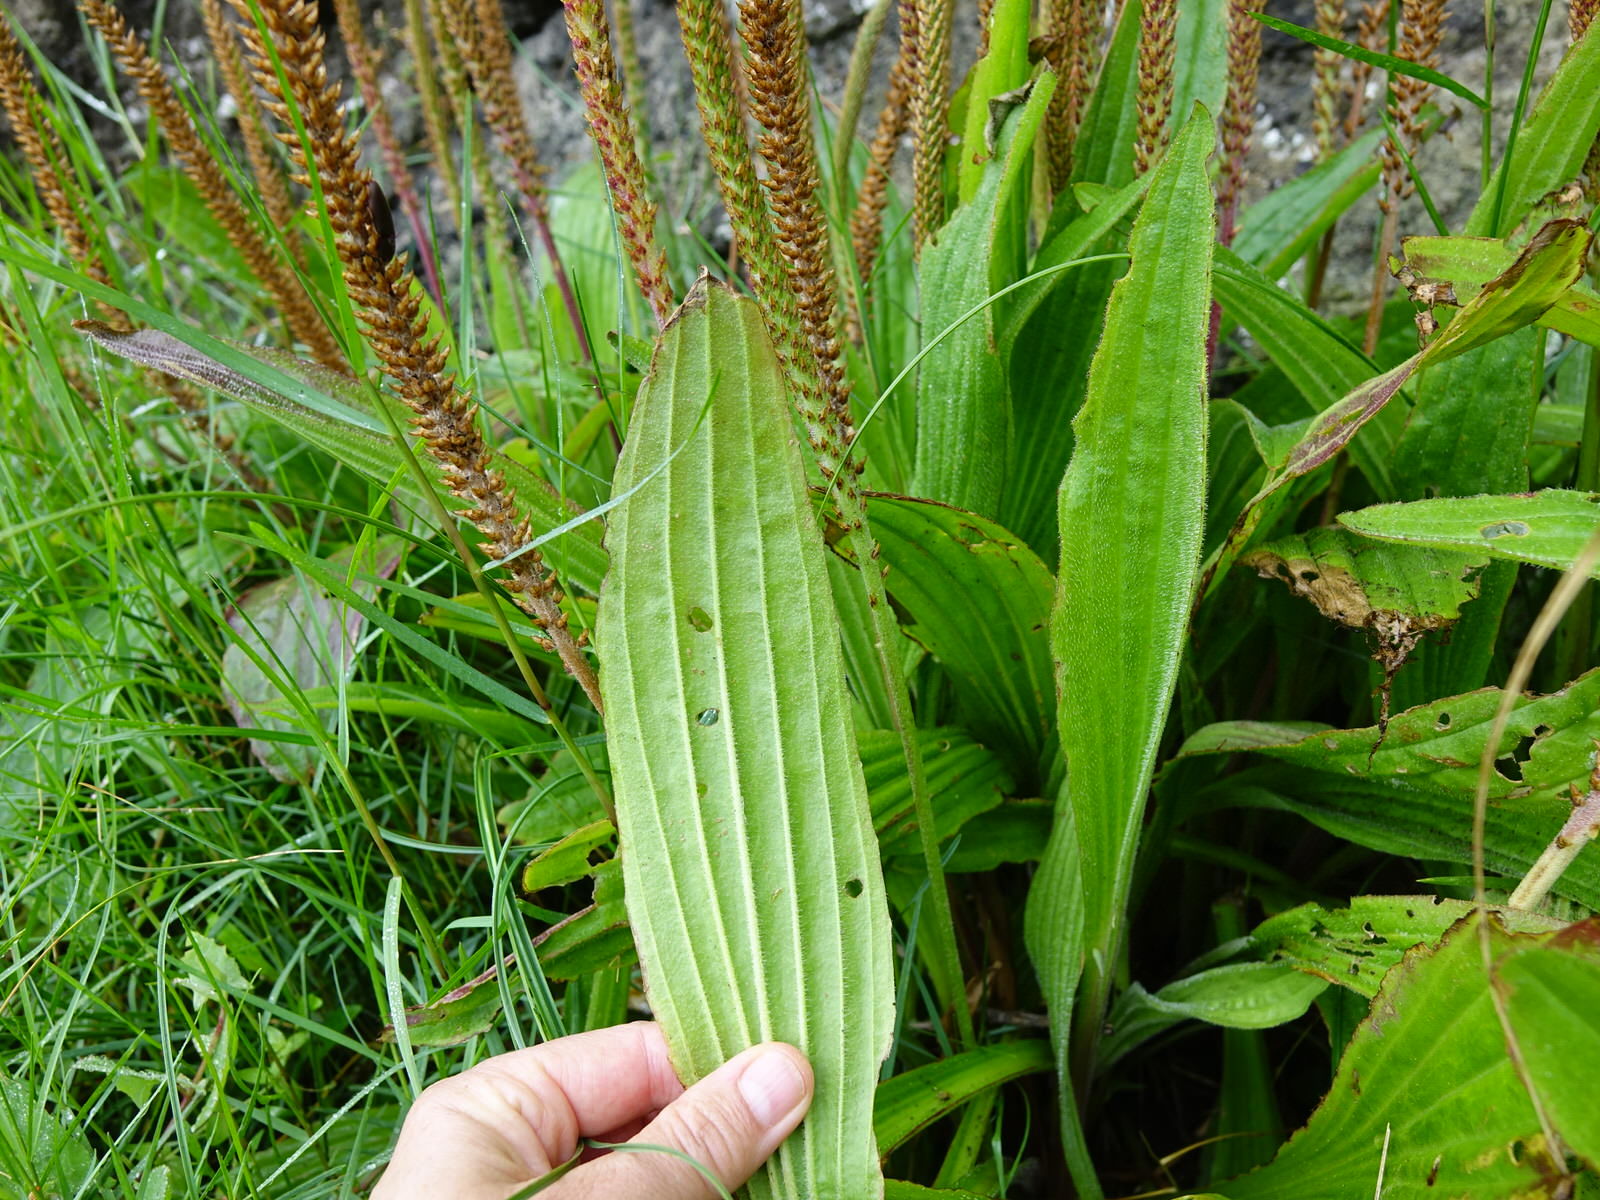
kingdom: Plantae
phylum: Tracheophyta
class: Magnoliopsida
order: Lamiales
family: Plantaginaceae
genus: Plantago
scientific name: Plantago australis
